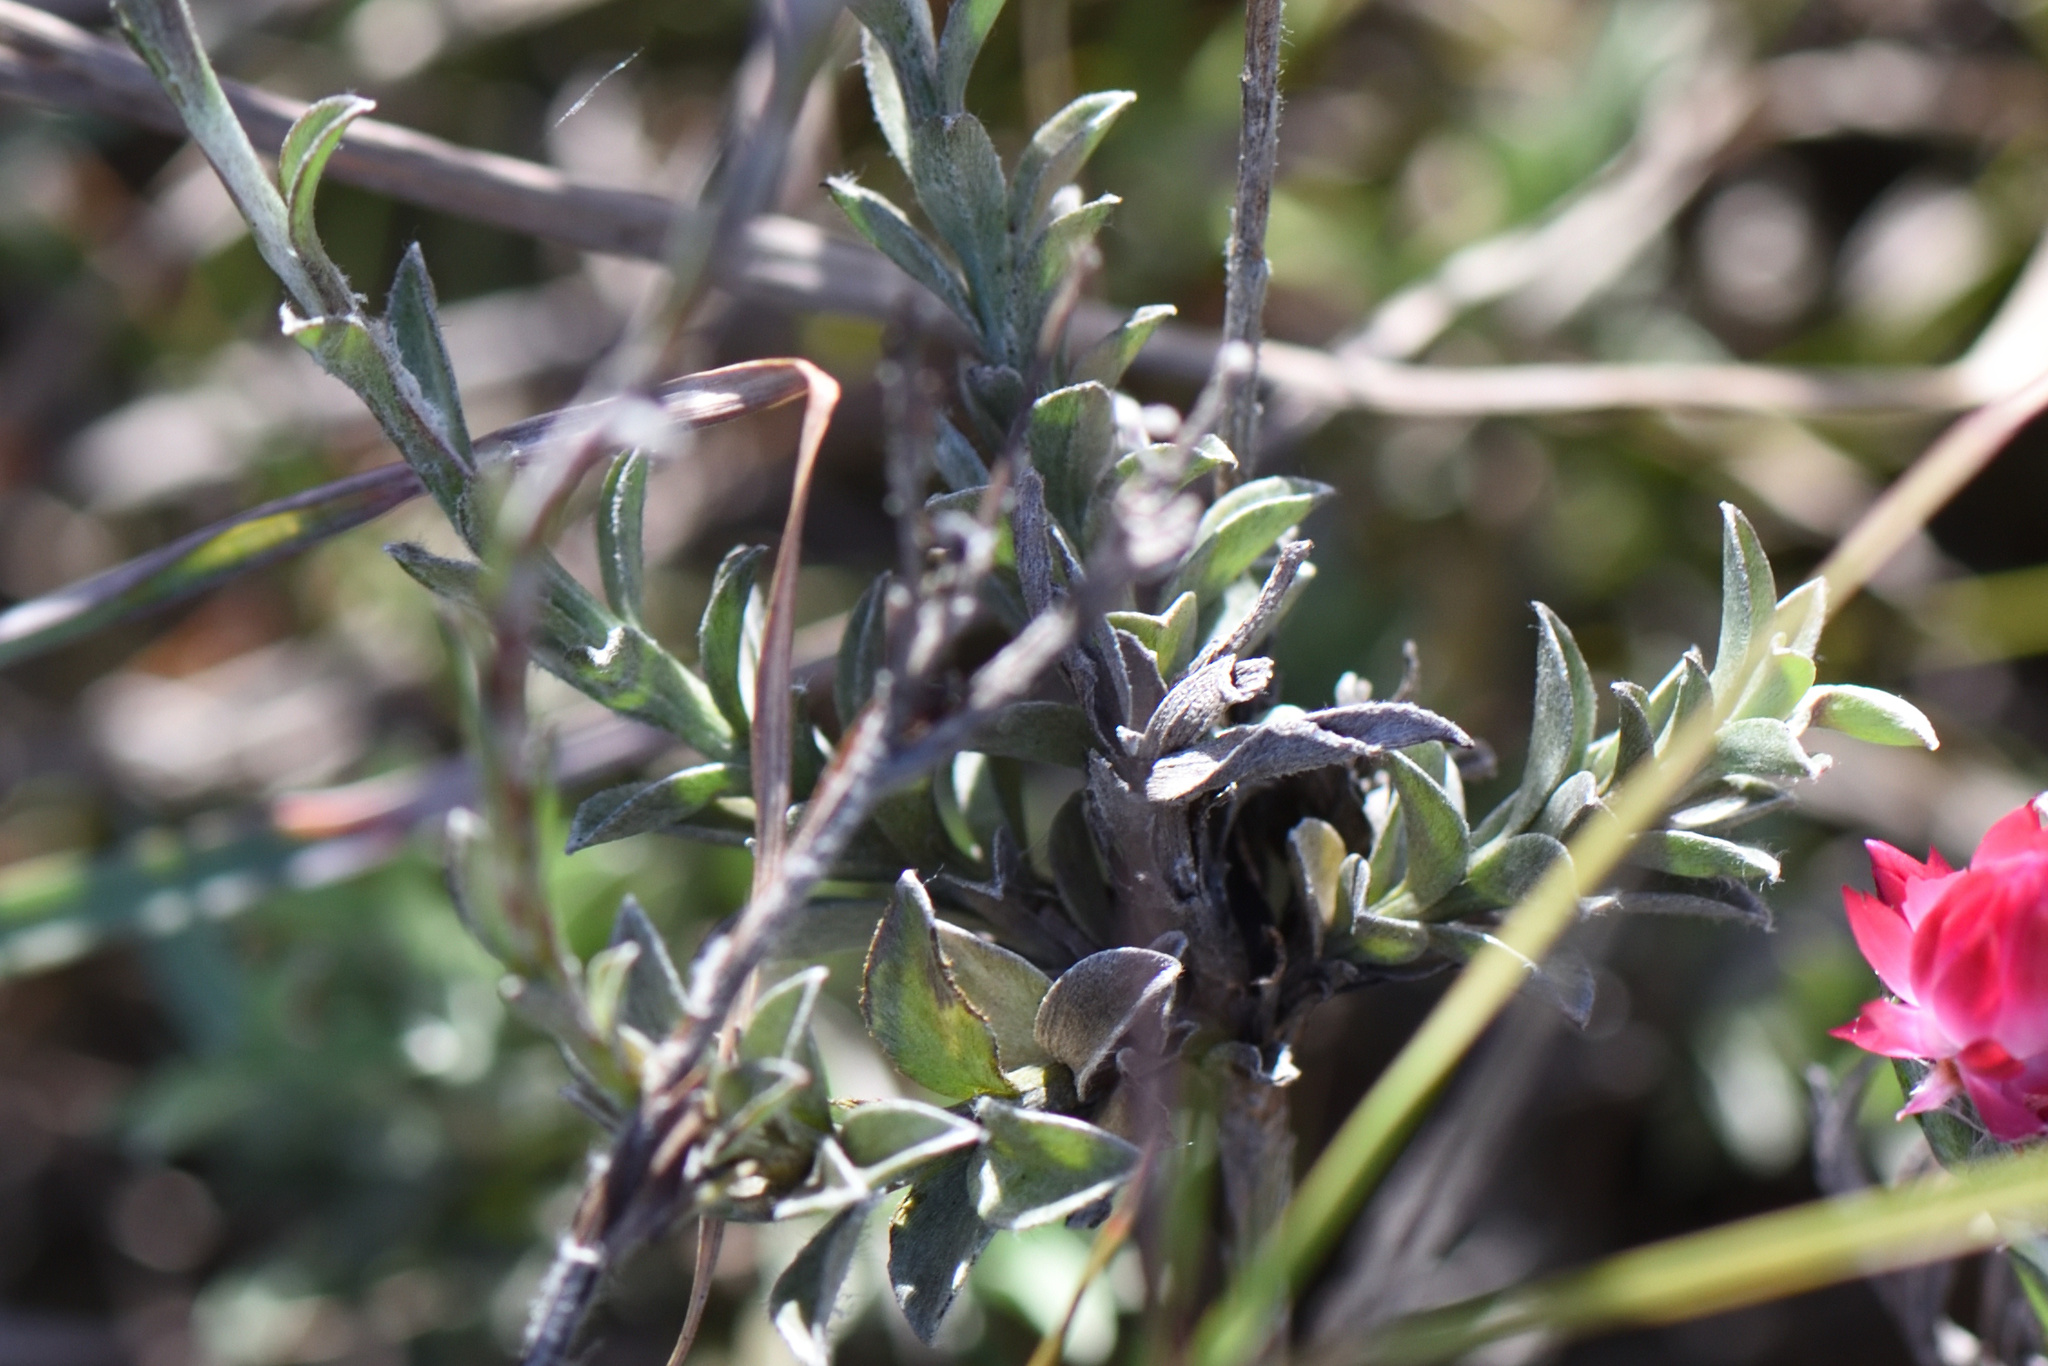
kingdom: Plantae
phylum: Tracheophyta
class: Magnoliopsida
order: Asterales
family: Asteraceae
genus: Achyranthemum
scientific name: Achyranthemum affine
